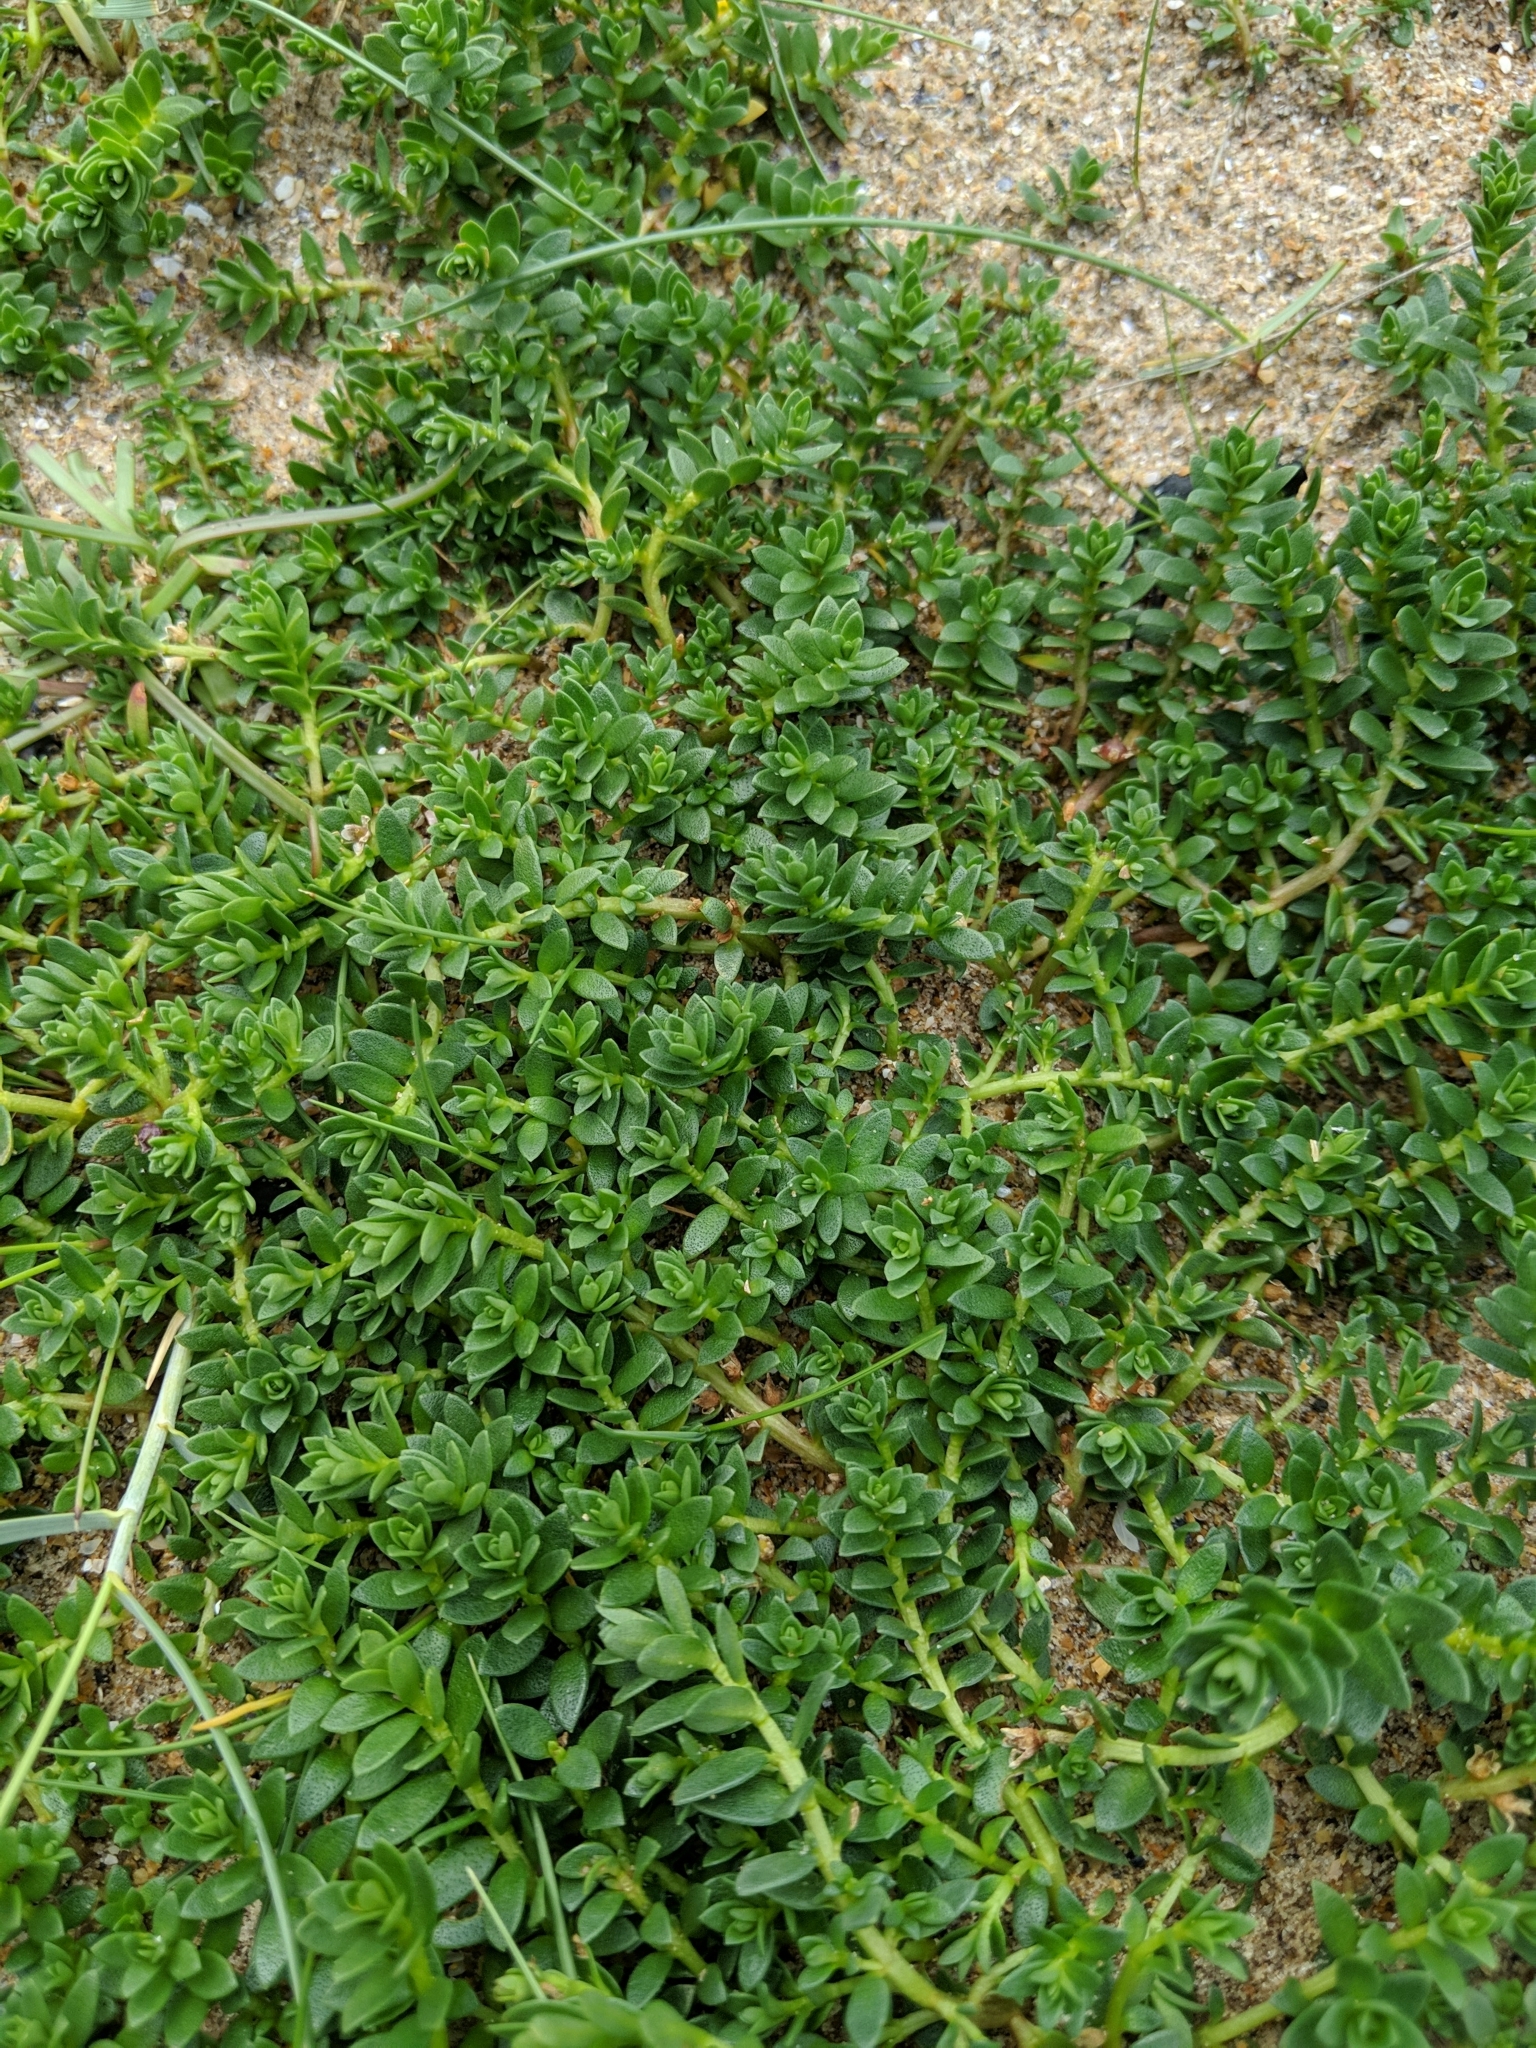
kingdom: Plantae
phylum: Tracheophyta
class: Magnoliopsida
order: Ericales
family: Primulaceae
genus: Lysimachia
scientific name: Lysimachia maritima
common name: Sea milkwort
